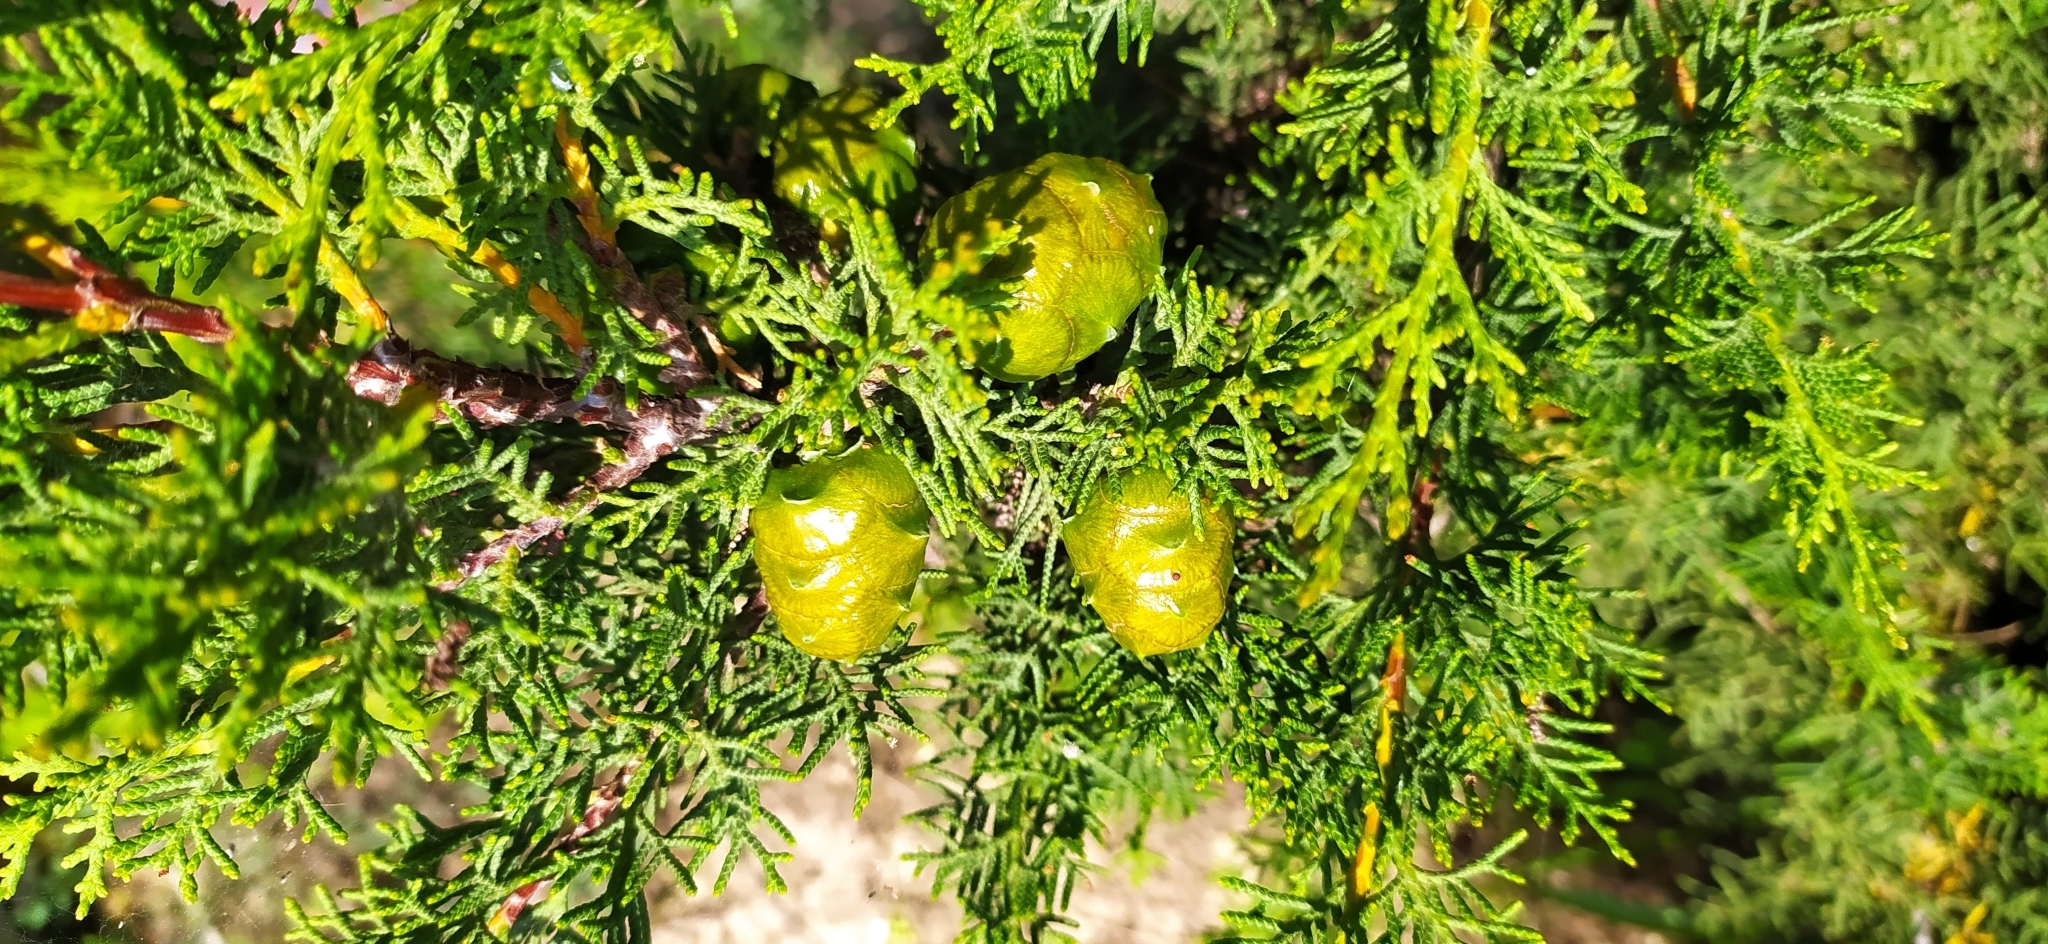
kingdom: Plantae
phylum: Tracheophyta
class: Pinopsida
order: Pinales
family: Cupressaceae
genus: Cupressus
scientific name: Cupressus sempervirens
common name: Italian cypress
